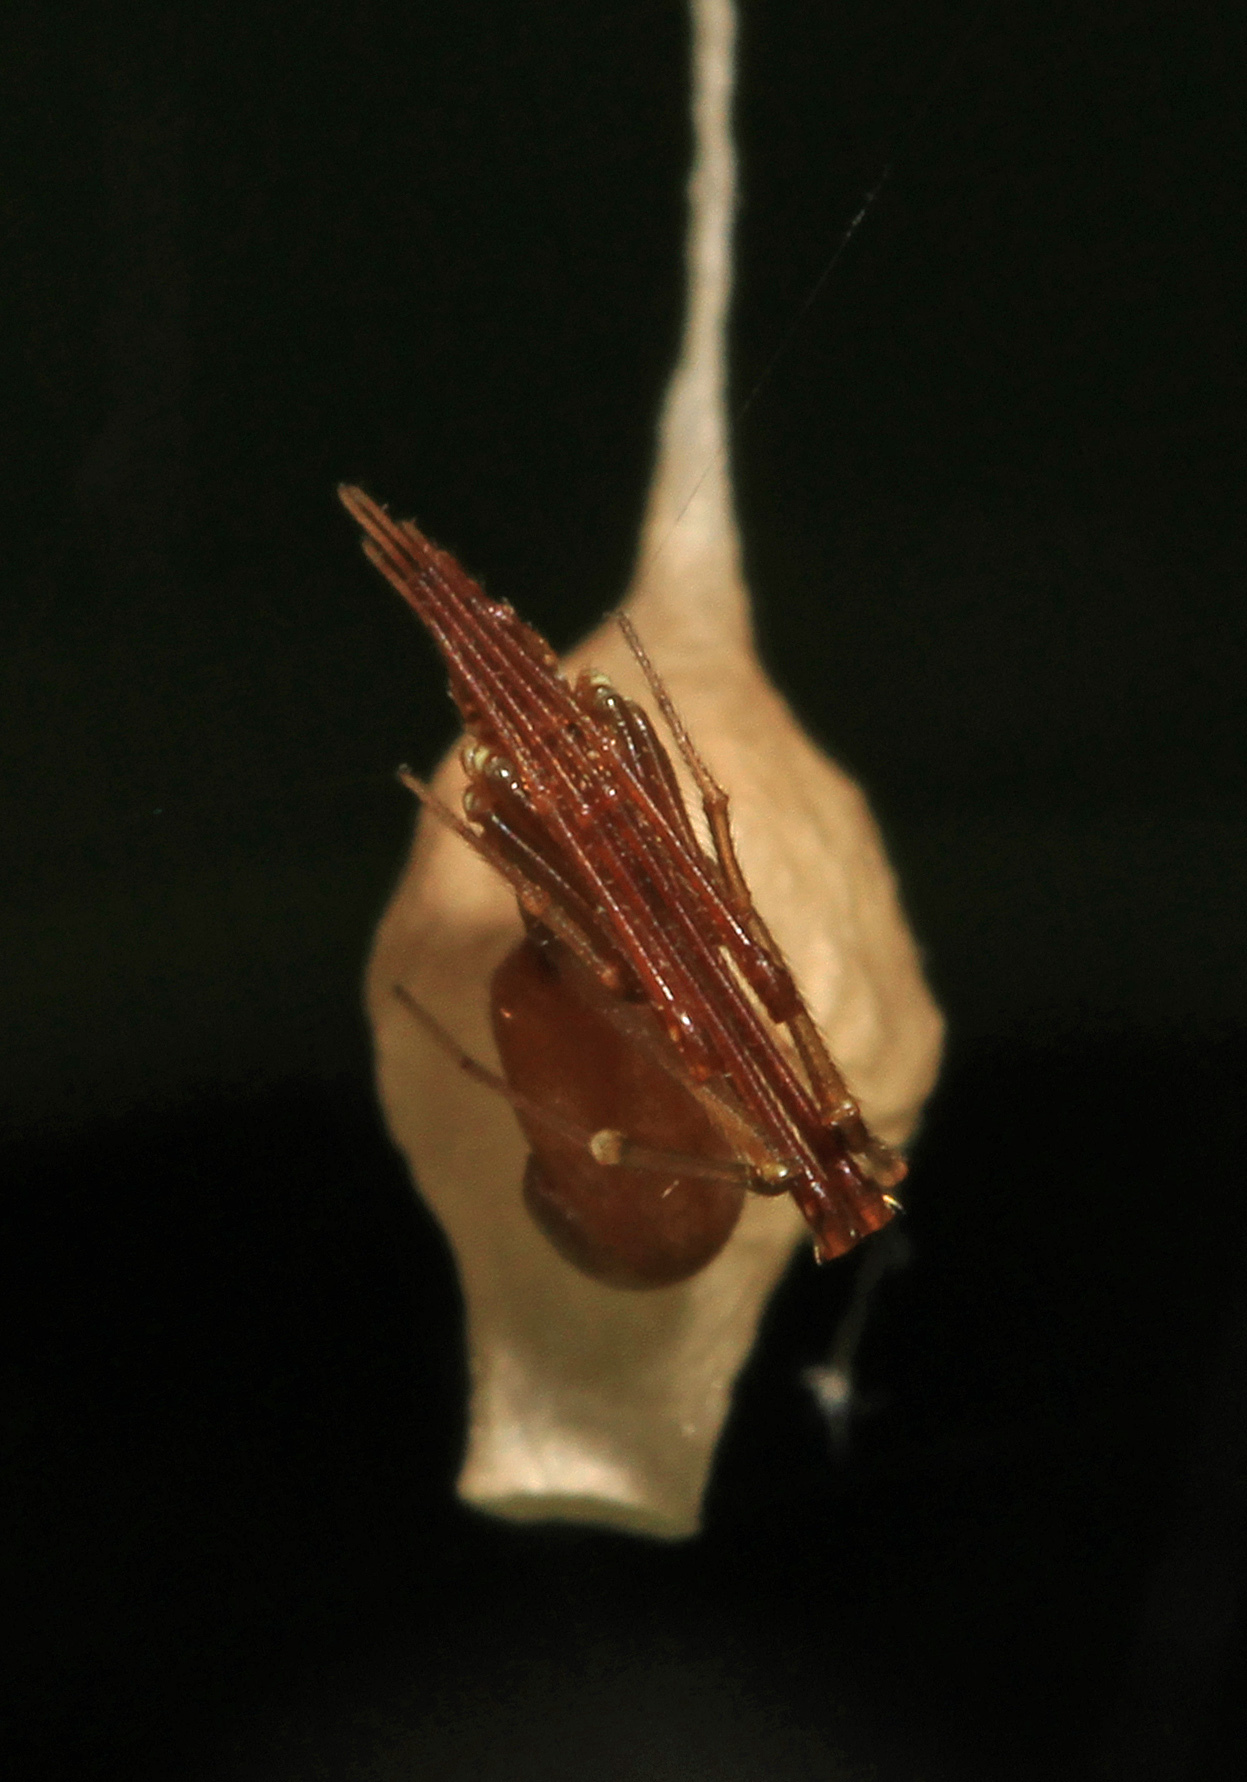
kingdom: Animalia
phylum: Arthropoda
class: Arachnida
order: Araneae
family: Theridiidae
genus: Neospintharus
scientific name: Neospintharus trigonum
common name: Horned parasitic cobweaver
